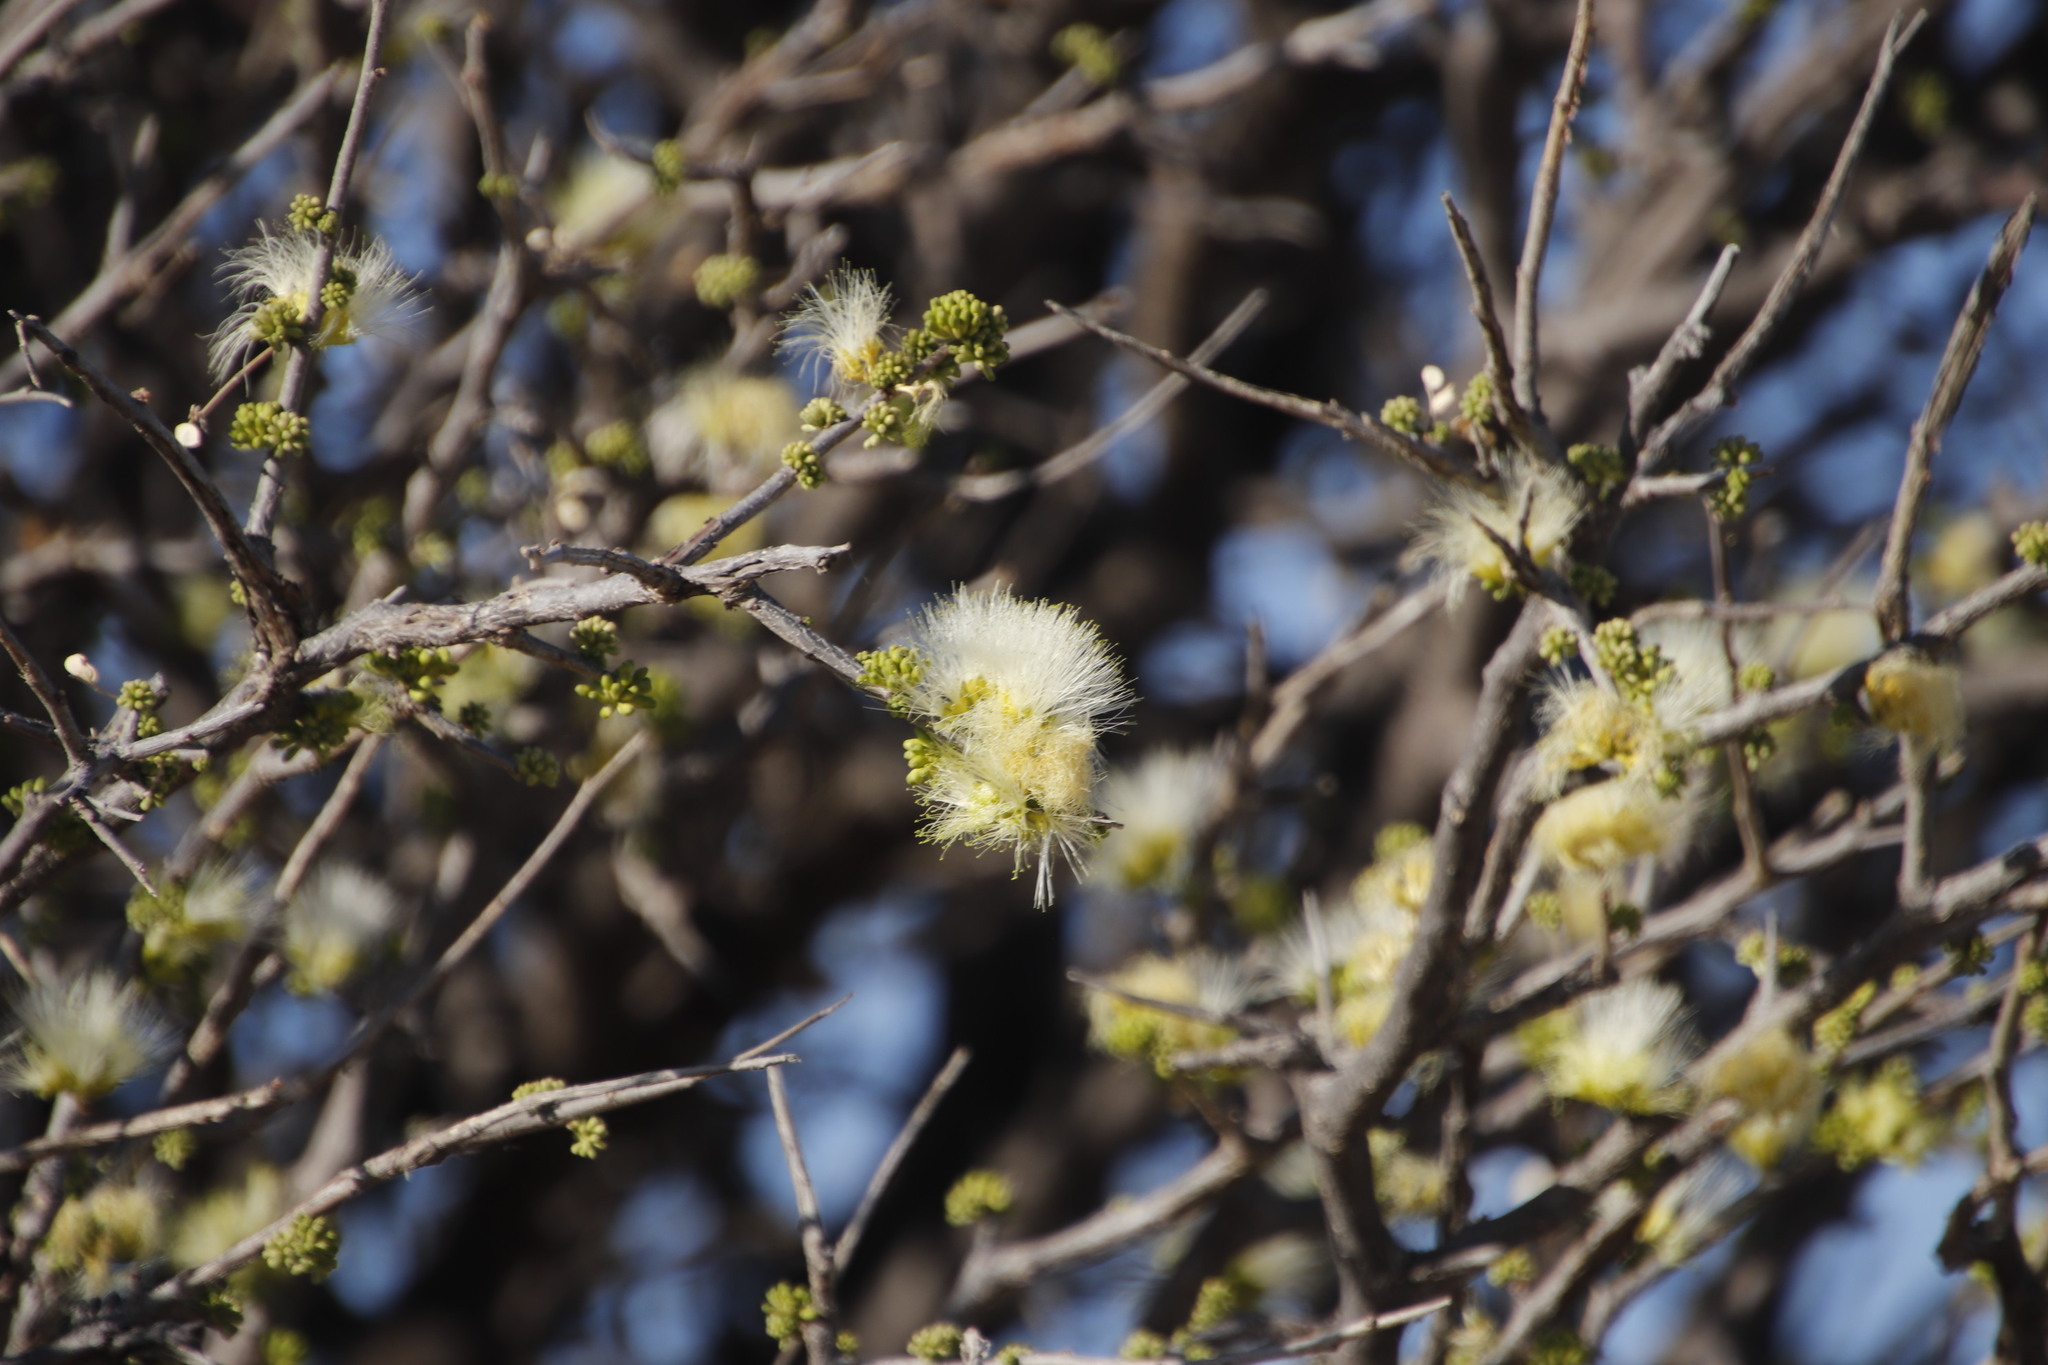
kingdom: Plantae
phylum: Tracheophyta
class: Magnoliopsida
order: Fabales
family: Fabaceae
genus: Albizia
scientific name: Albizia anthelmintica
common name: Worm-bark false-thorn
